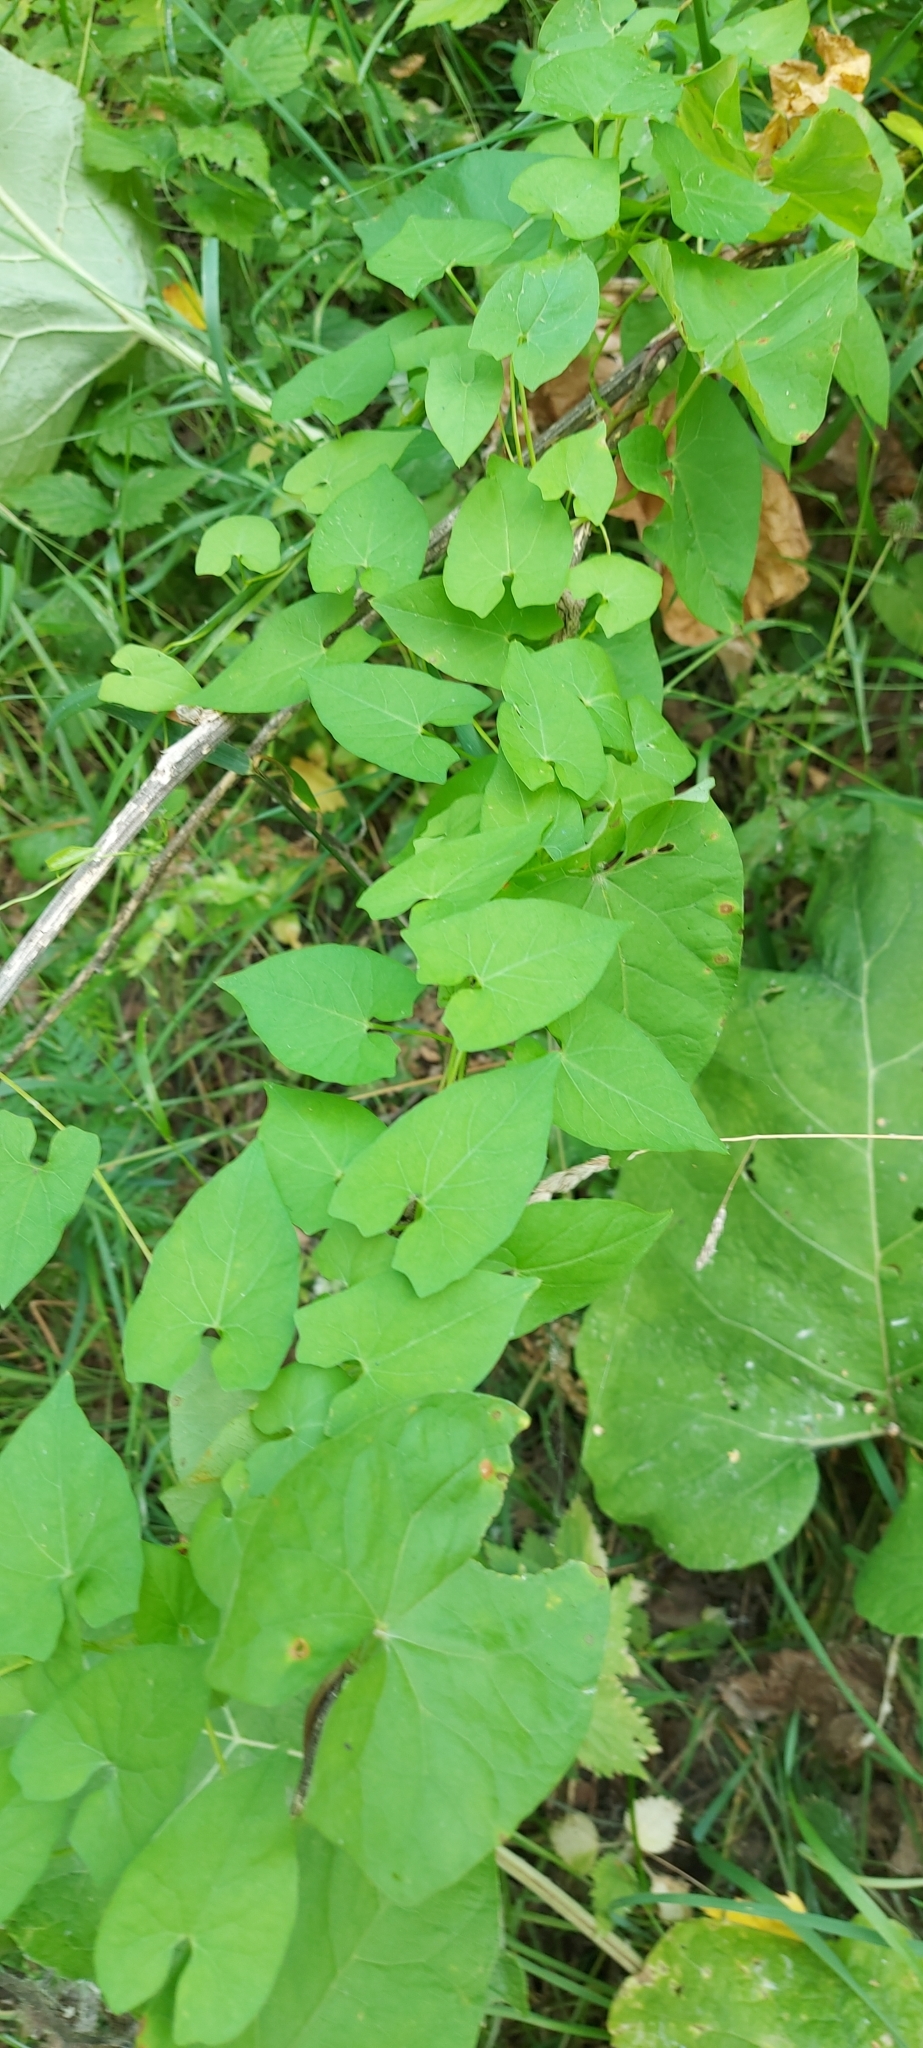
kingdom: Plantae
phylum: Tracheophyta
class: Magnoliopsida
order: Solanales
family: Convolvulaceae
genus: Calystegia
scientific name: Calystegia sepium
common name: Hedge bindweed
